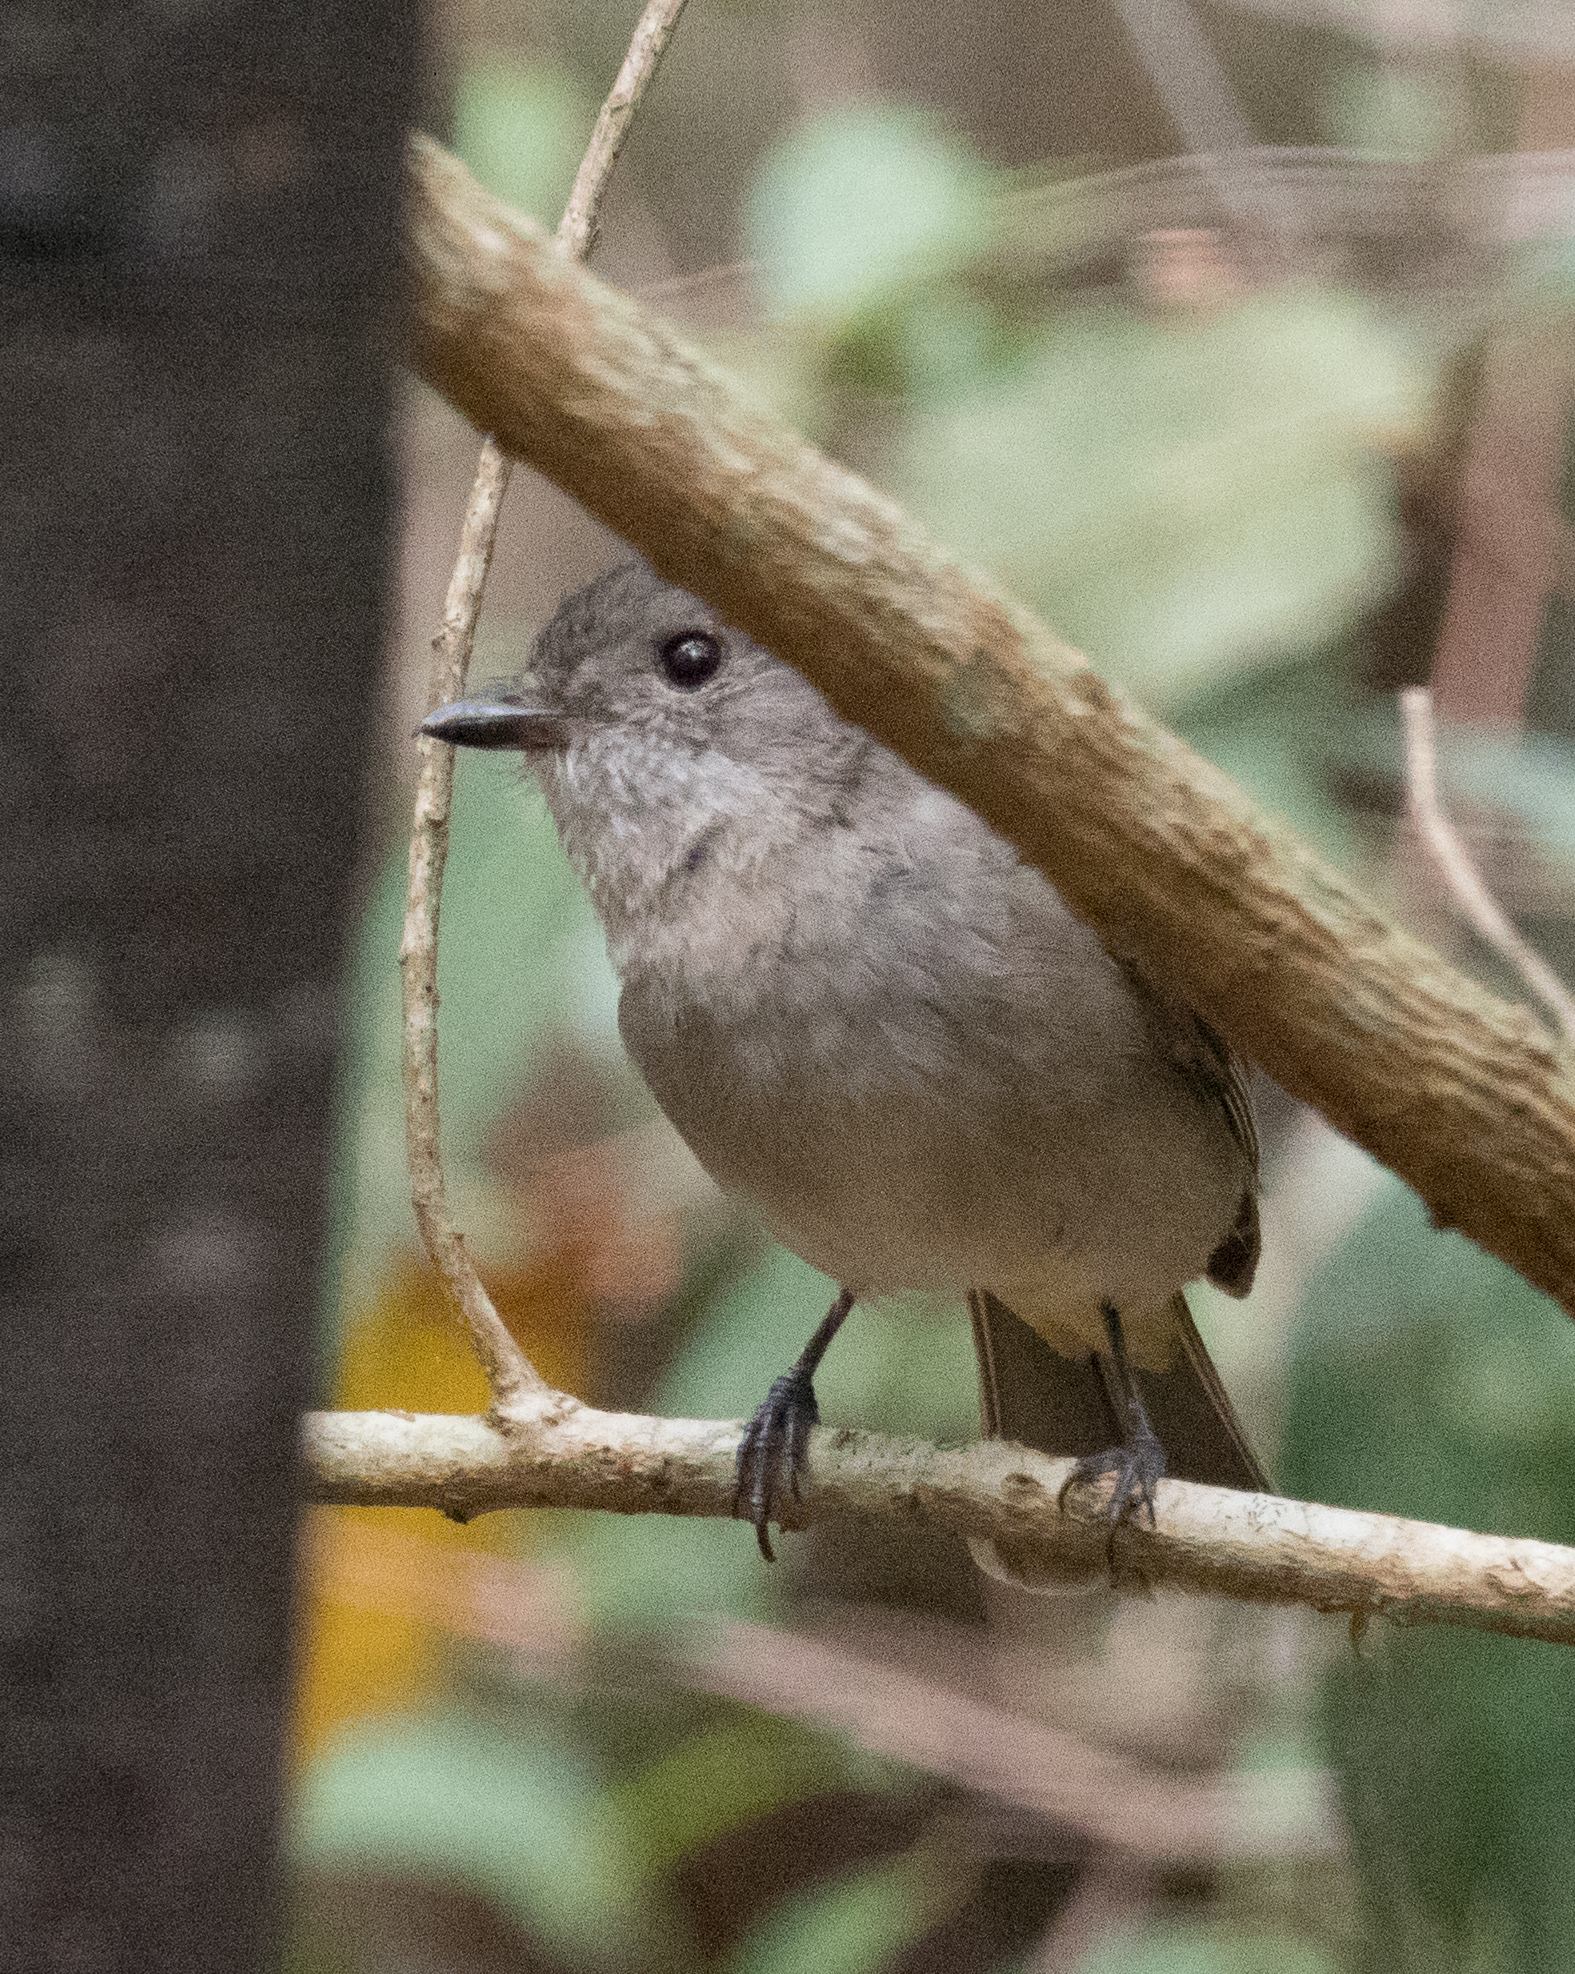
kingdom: Animalia
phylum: Chordata
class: Aves
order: Passeriformes
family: Pachycephalidae
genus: Pachycephala
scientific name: Pachycephala pectoralis
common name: Australian golden whistler
